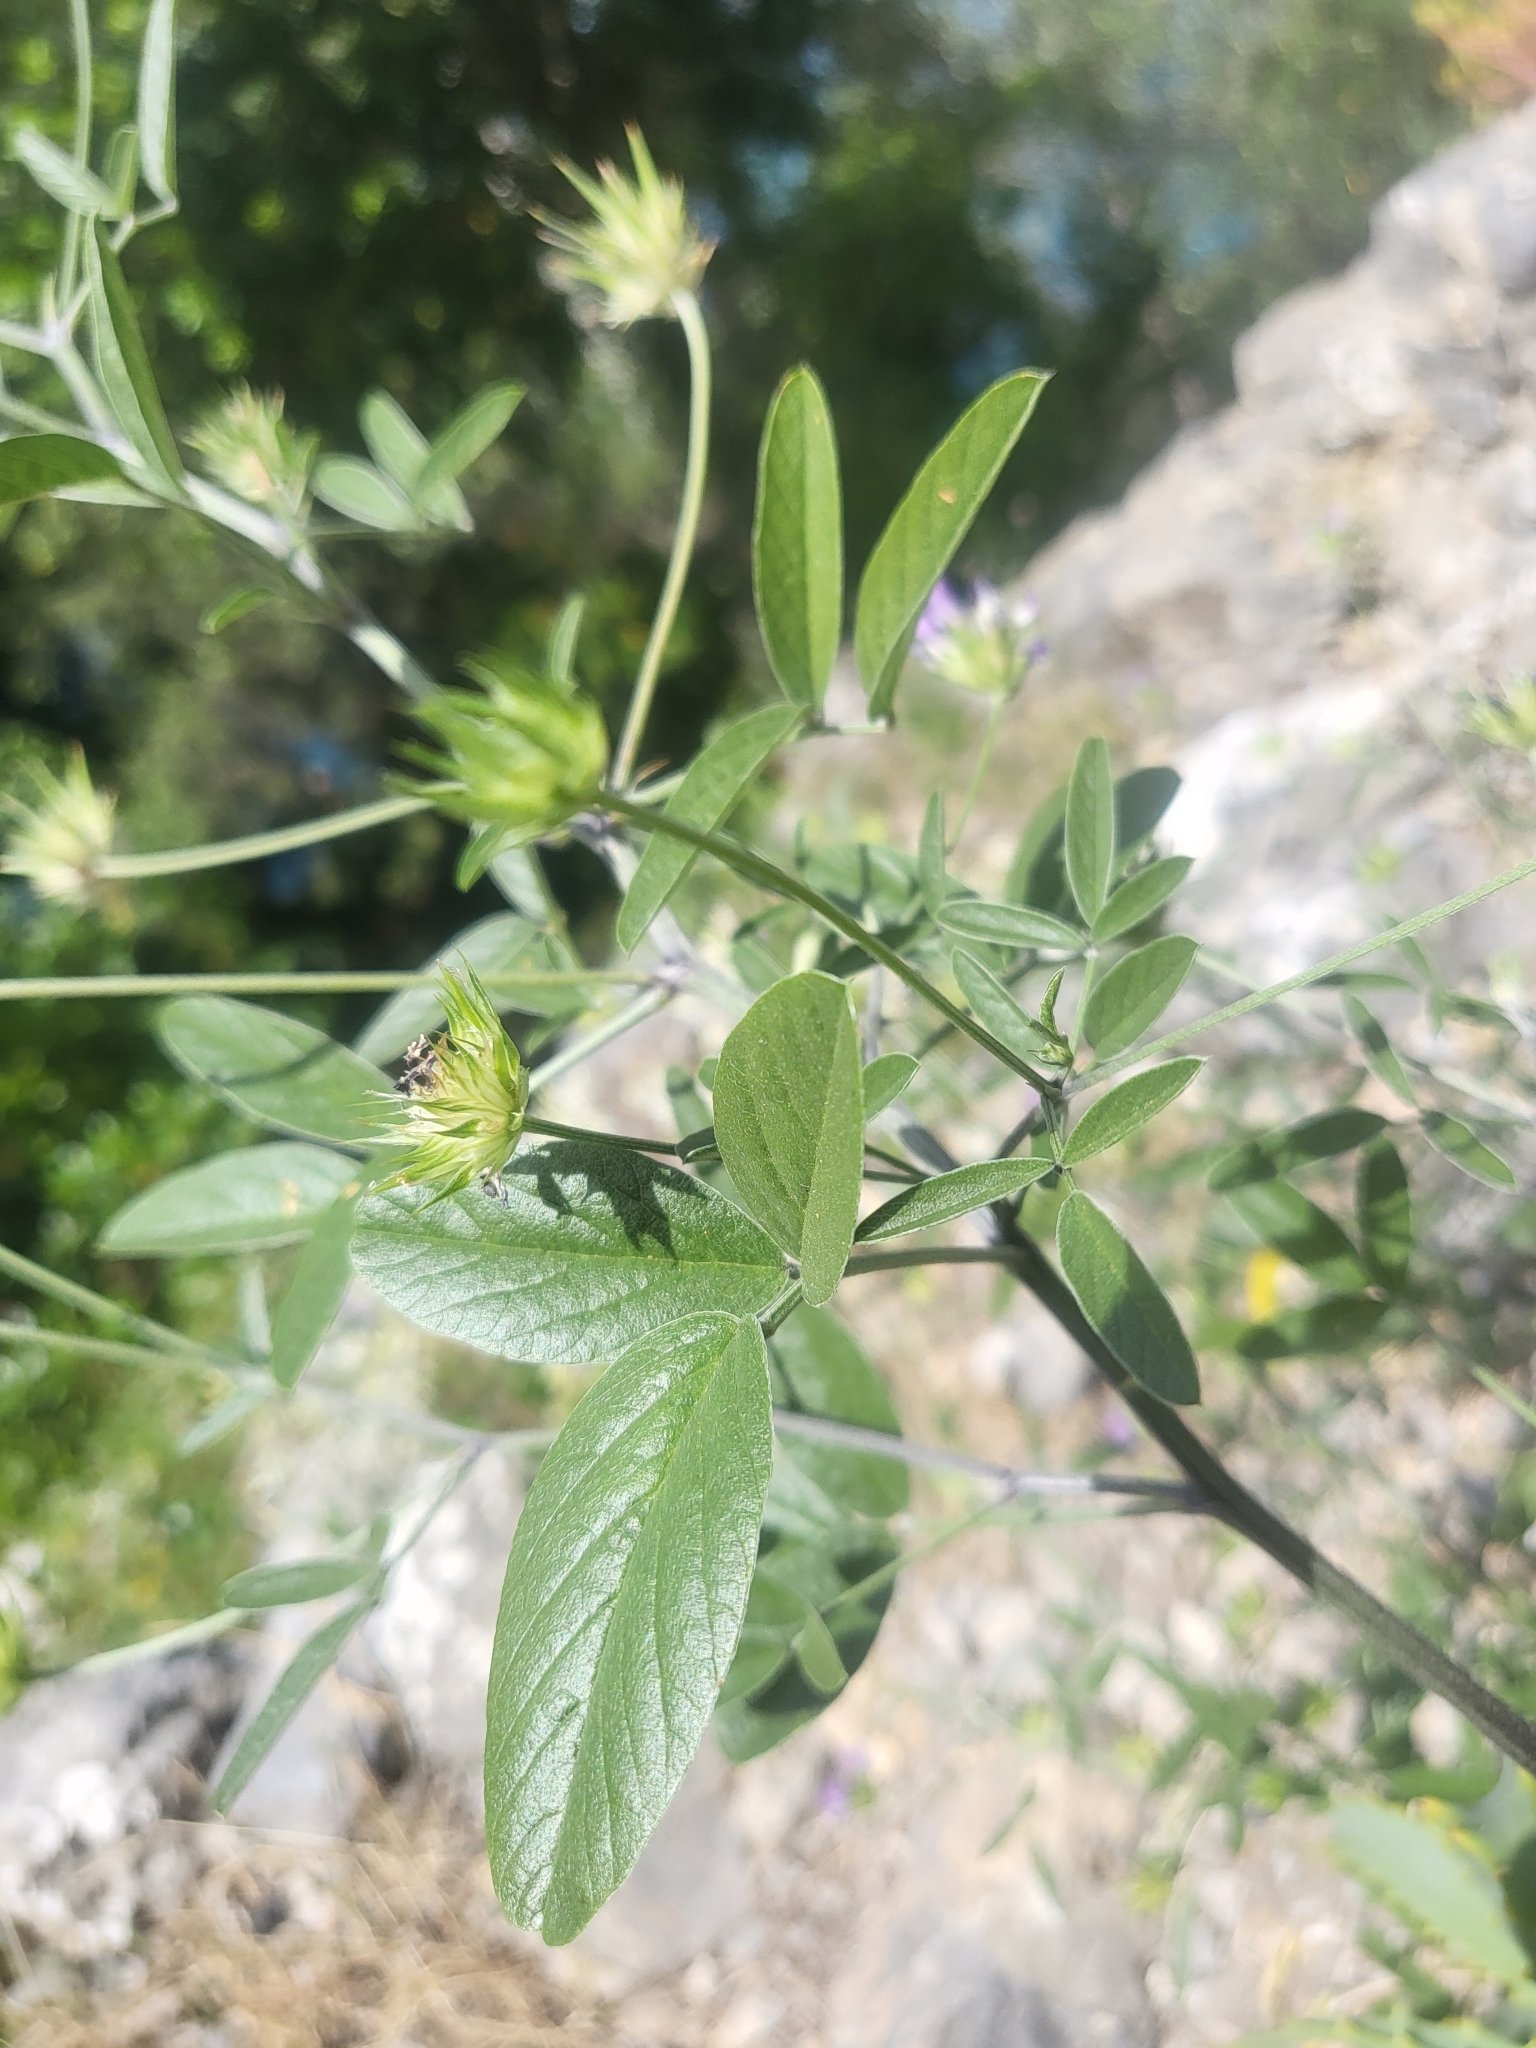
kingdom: Plantae
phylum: Tracheophyta
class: Magnoliopsida
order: Fabales
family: Fabaceae
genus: Bituminaria
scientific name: Bituminaria bituminosa
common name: Arabian pea
